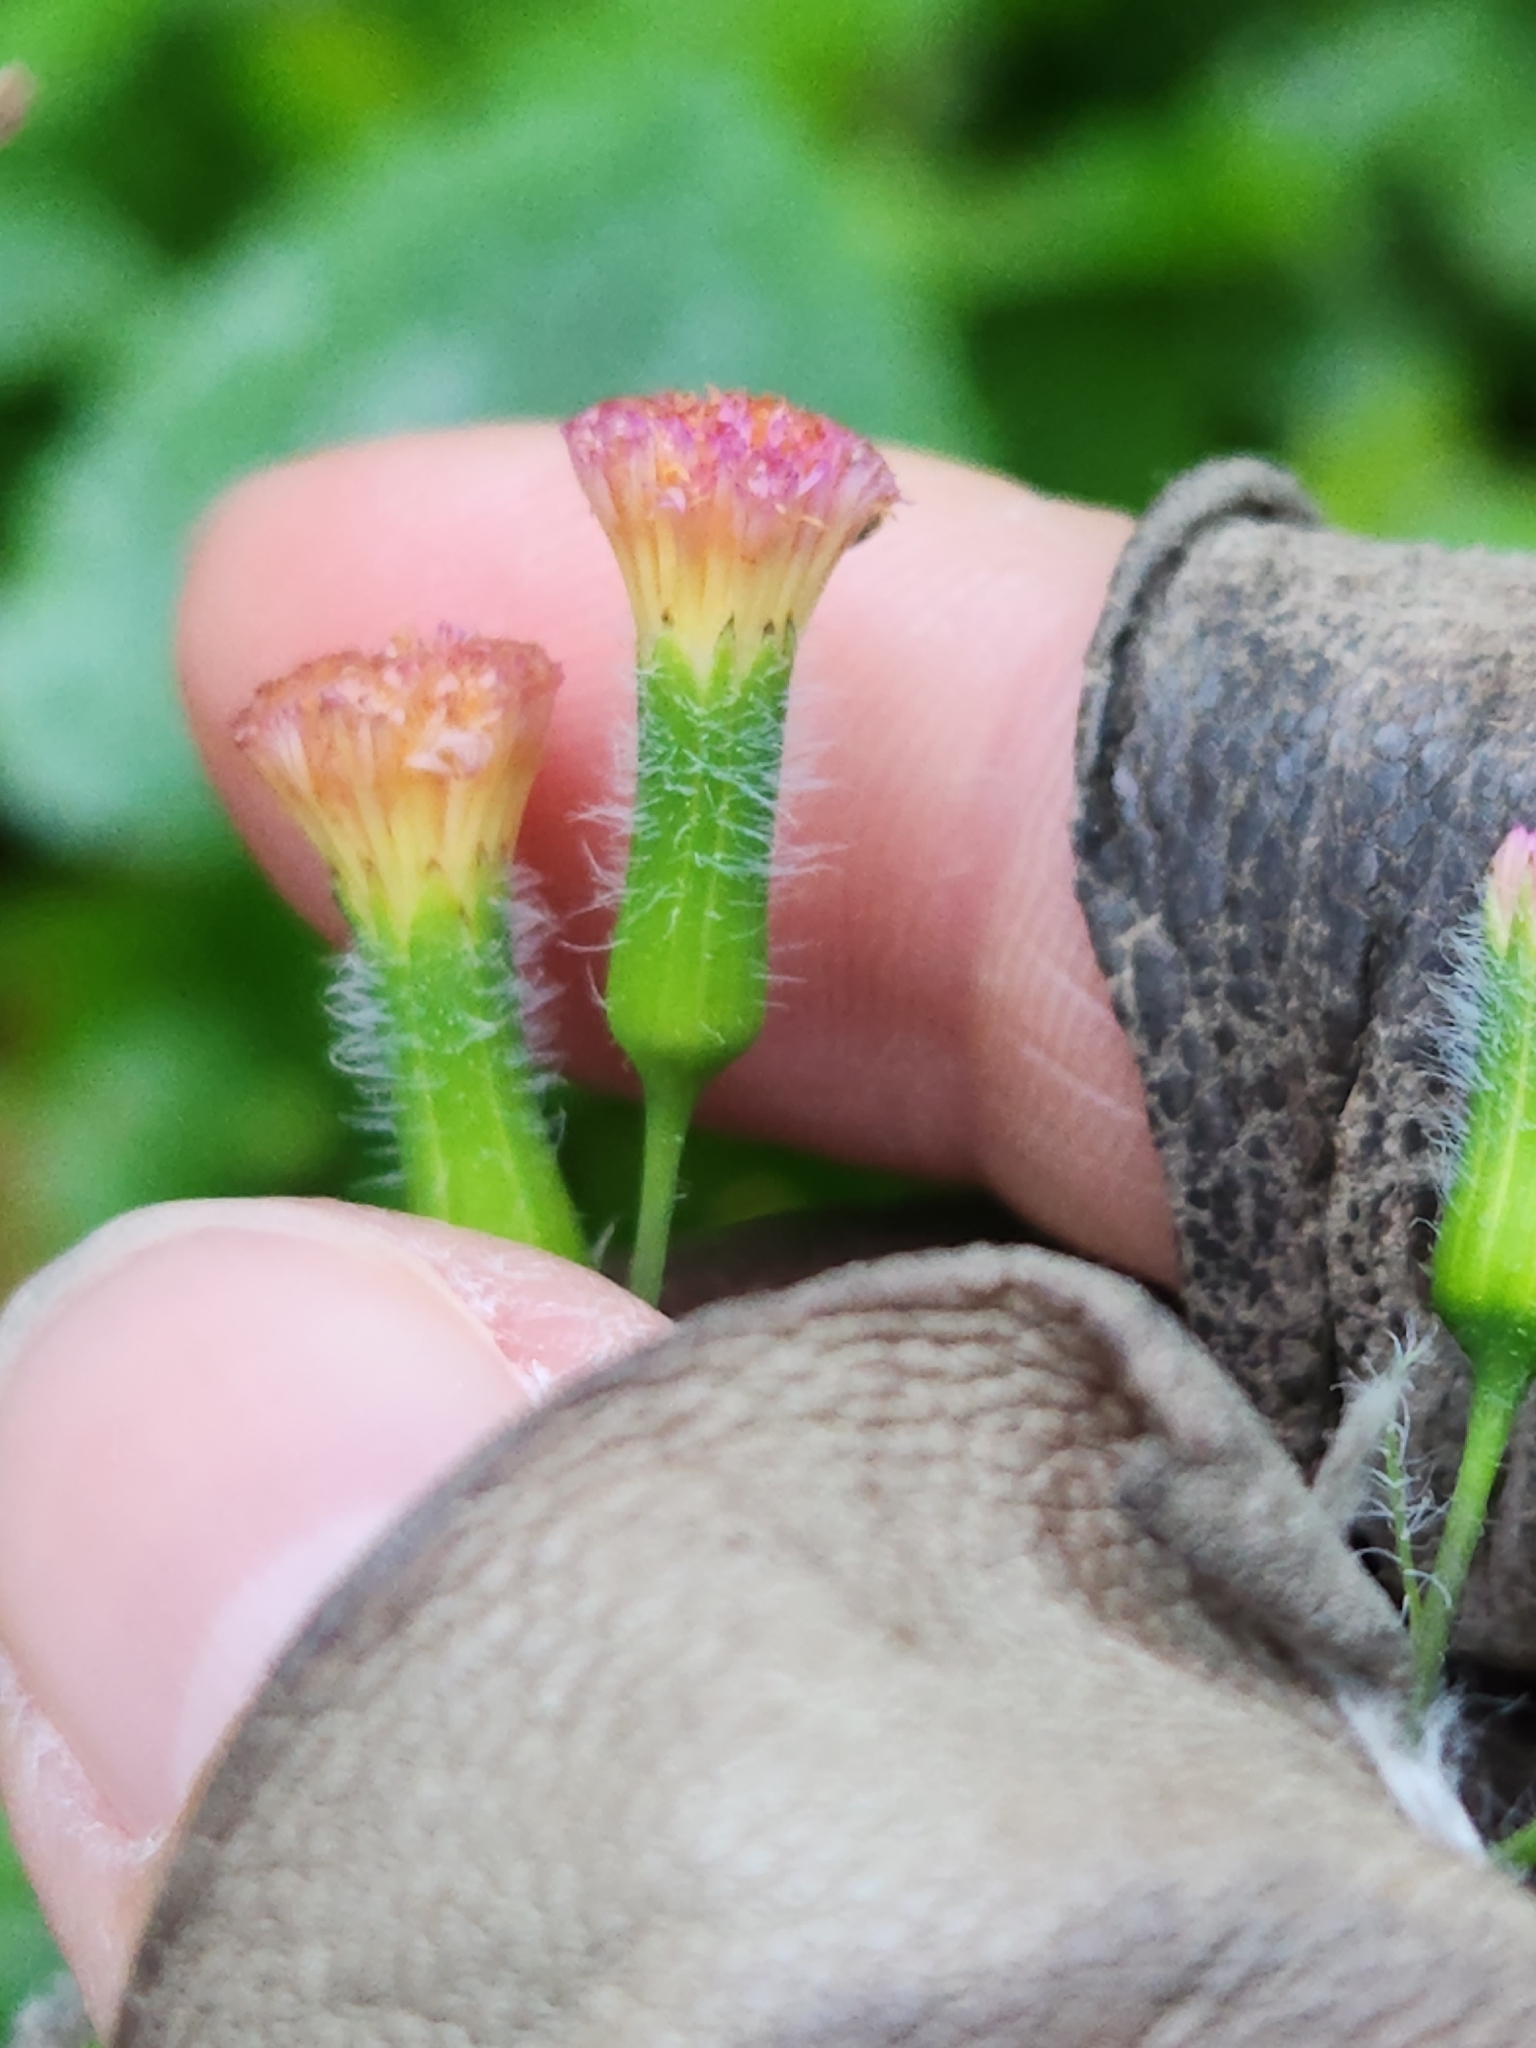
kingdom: Plantae
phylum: Tracheophyta
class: Magnoliopsida
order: Asterales
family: Asteraceae
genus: Emilia
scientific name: Emilia fosbergii
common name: Florida tasselflower
